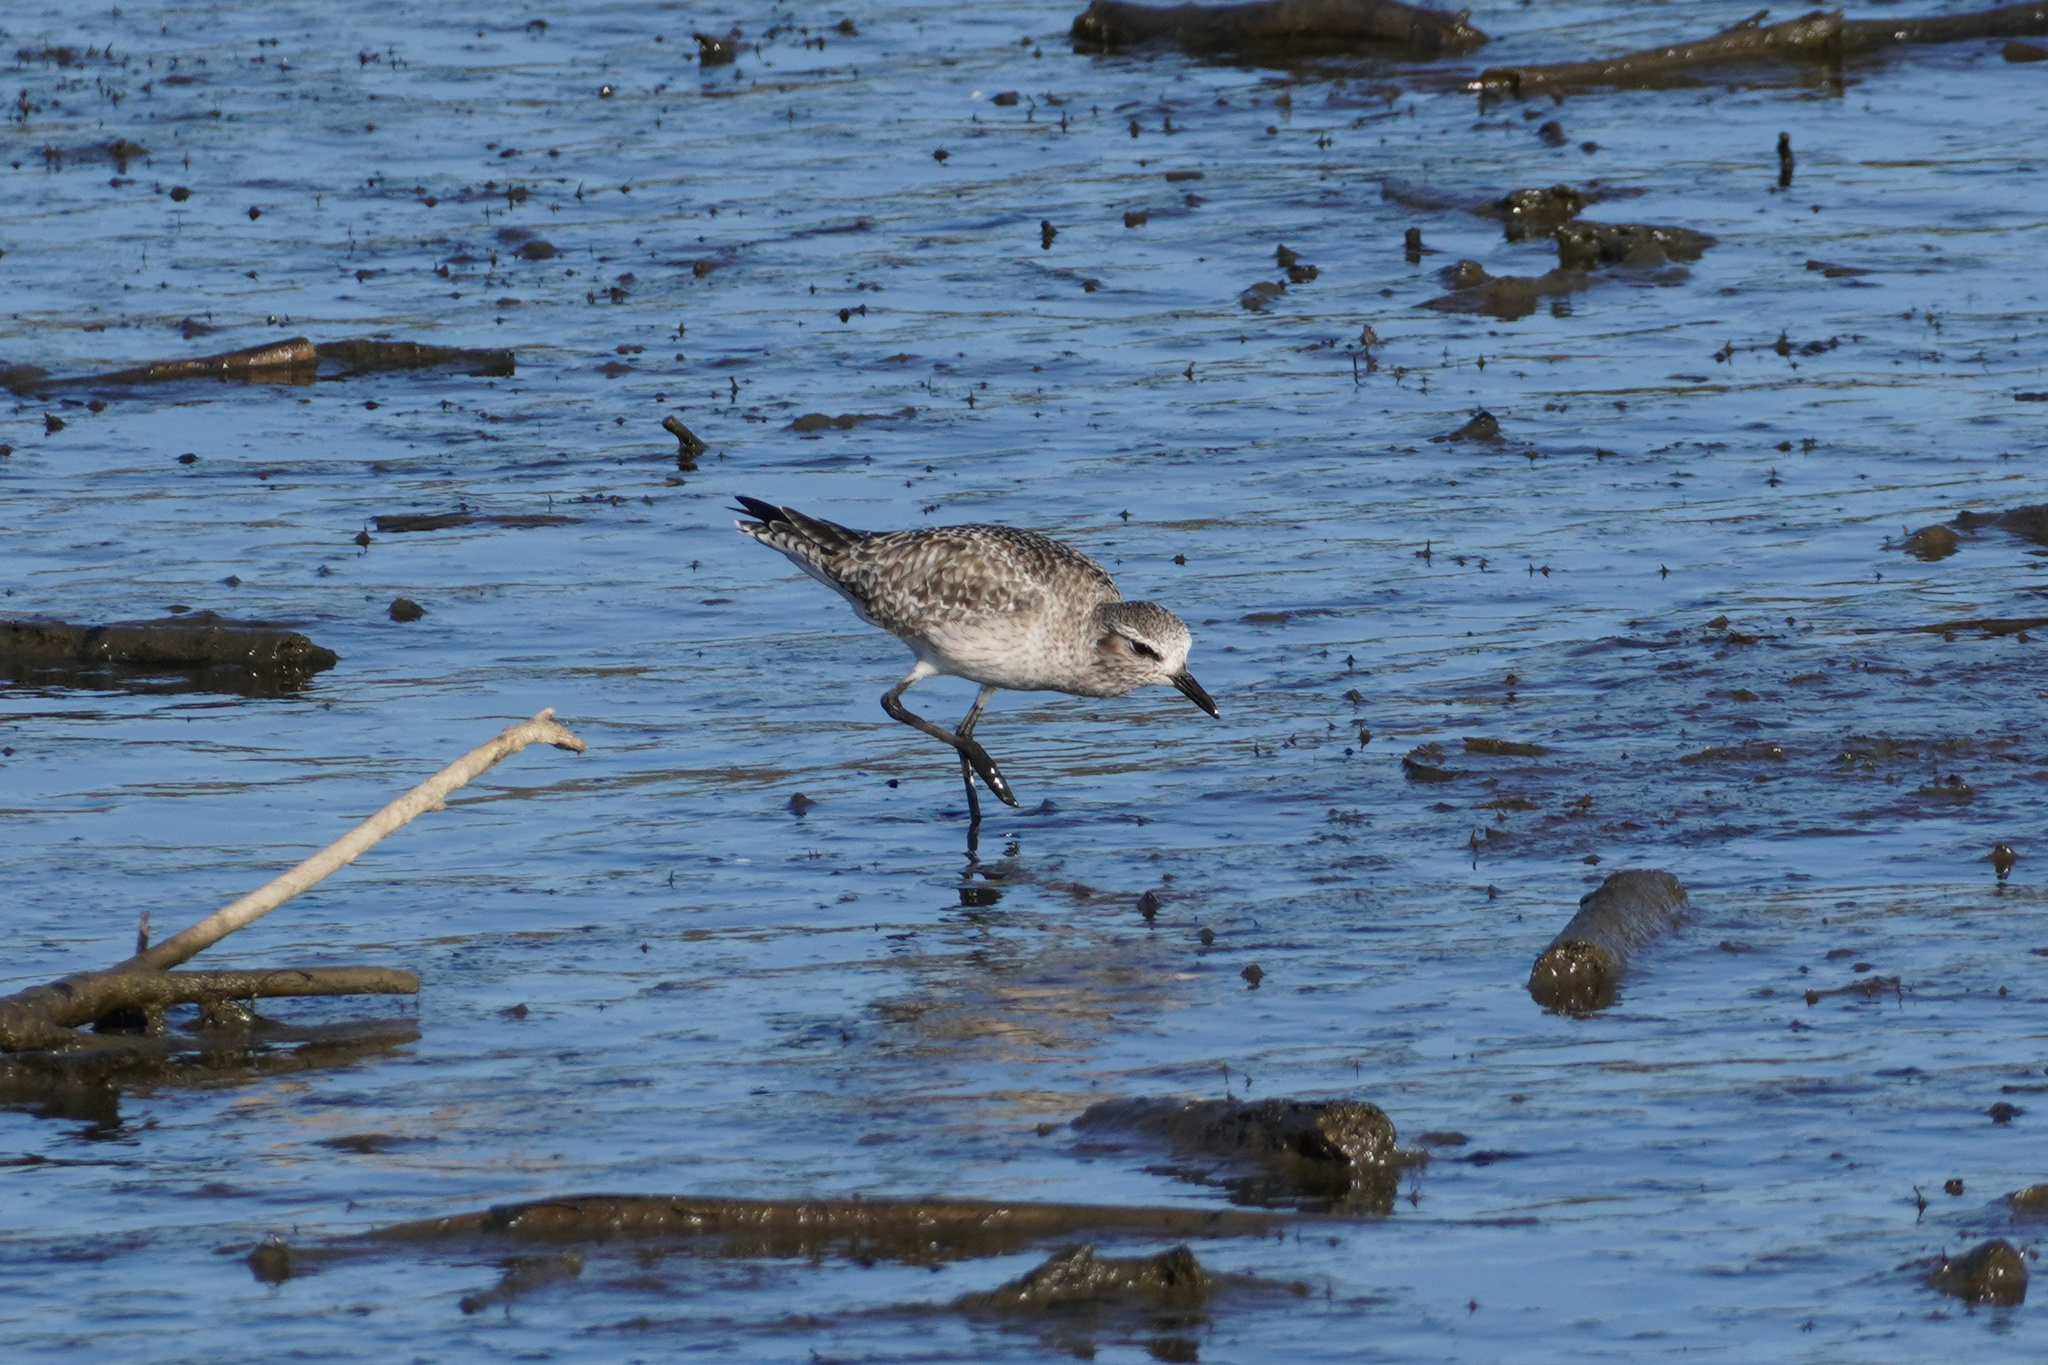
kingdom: Animalia
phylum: Chordata
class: Aves
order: Charadriiformes
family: Charadriidae
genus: Pluvialis
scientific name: Pluvialis squatarola
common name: Grey plover
